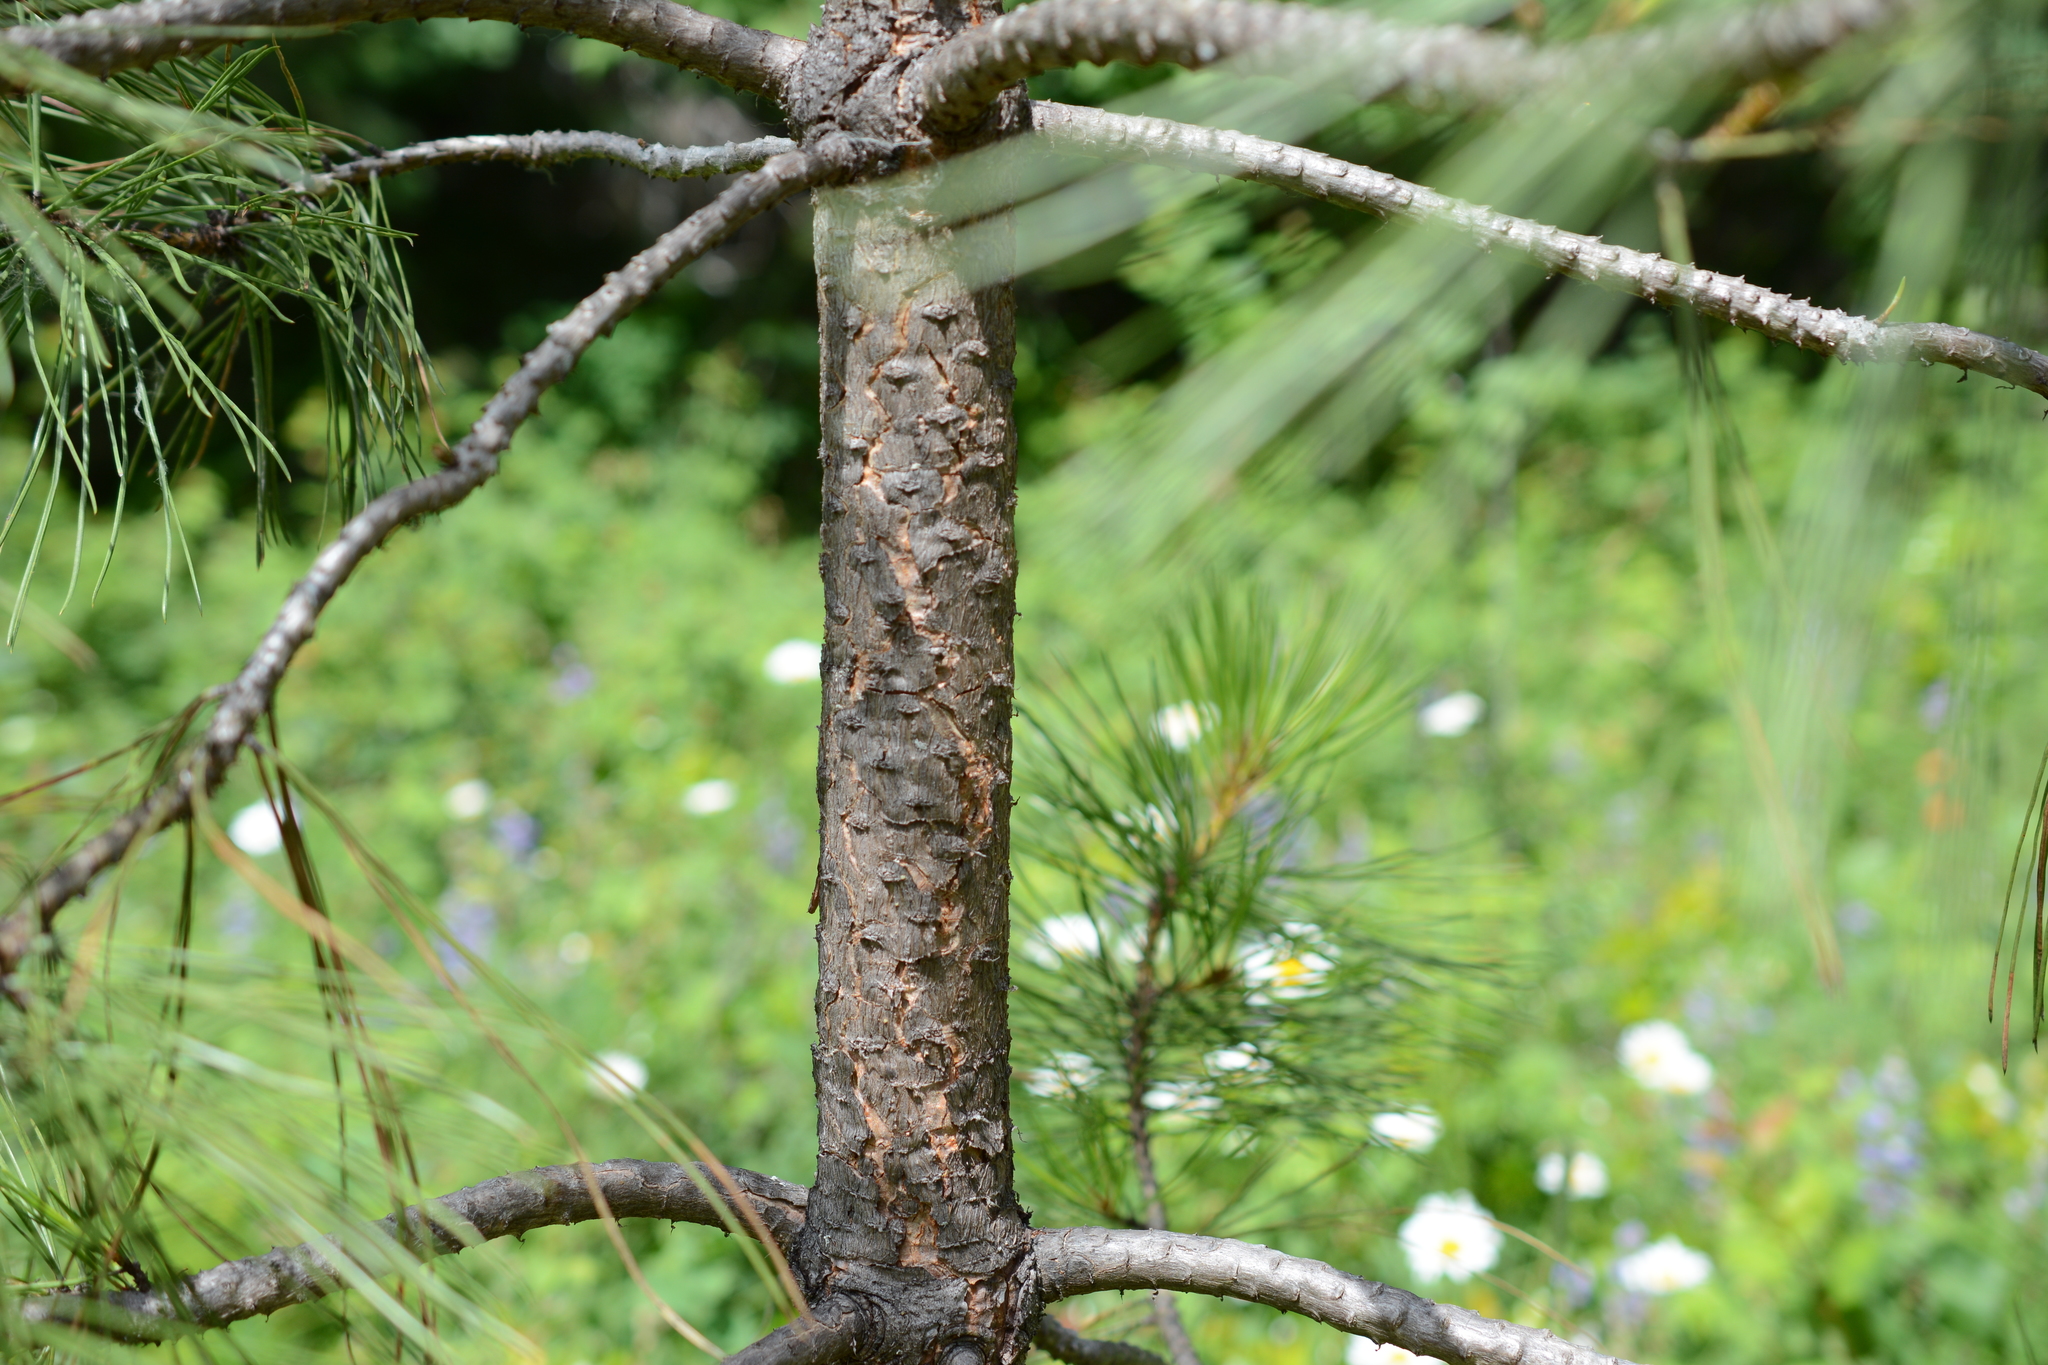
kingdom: Plantae
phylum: Tracheophyta
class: Pinopsida
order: Pinales
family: Pinaceae
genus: Pinus
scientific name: Pinus ponderosa
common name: Western yellow-pine
